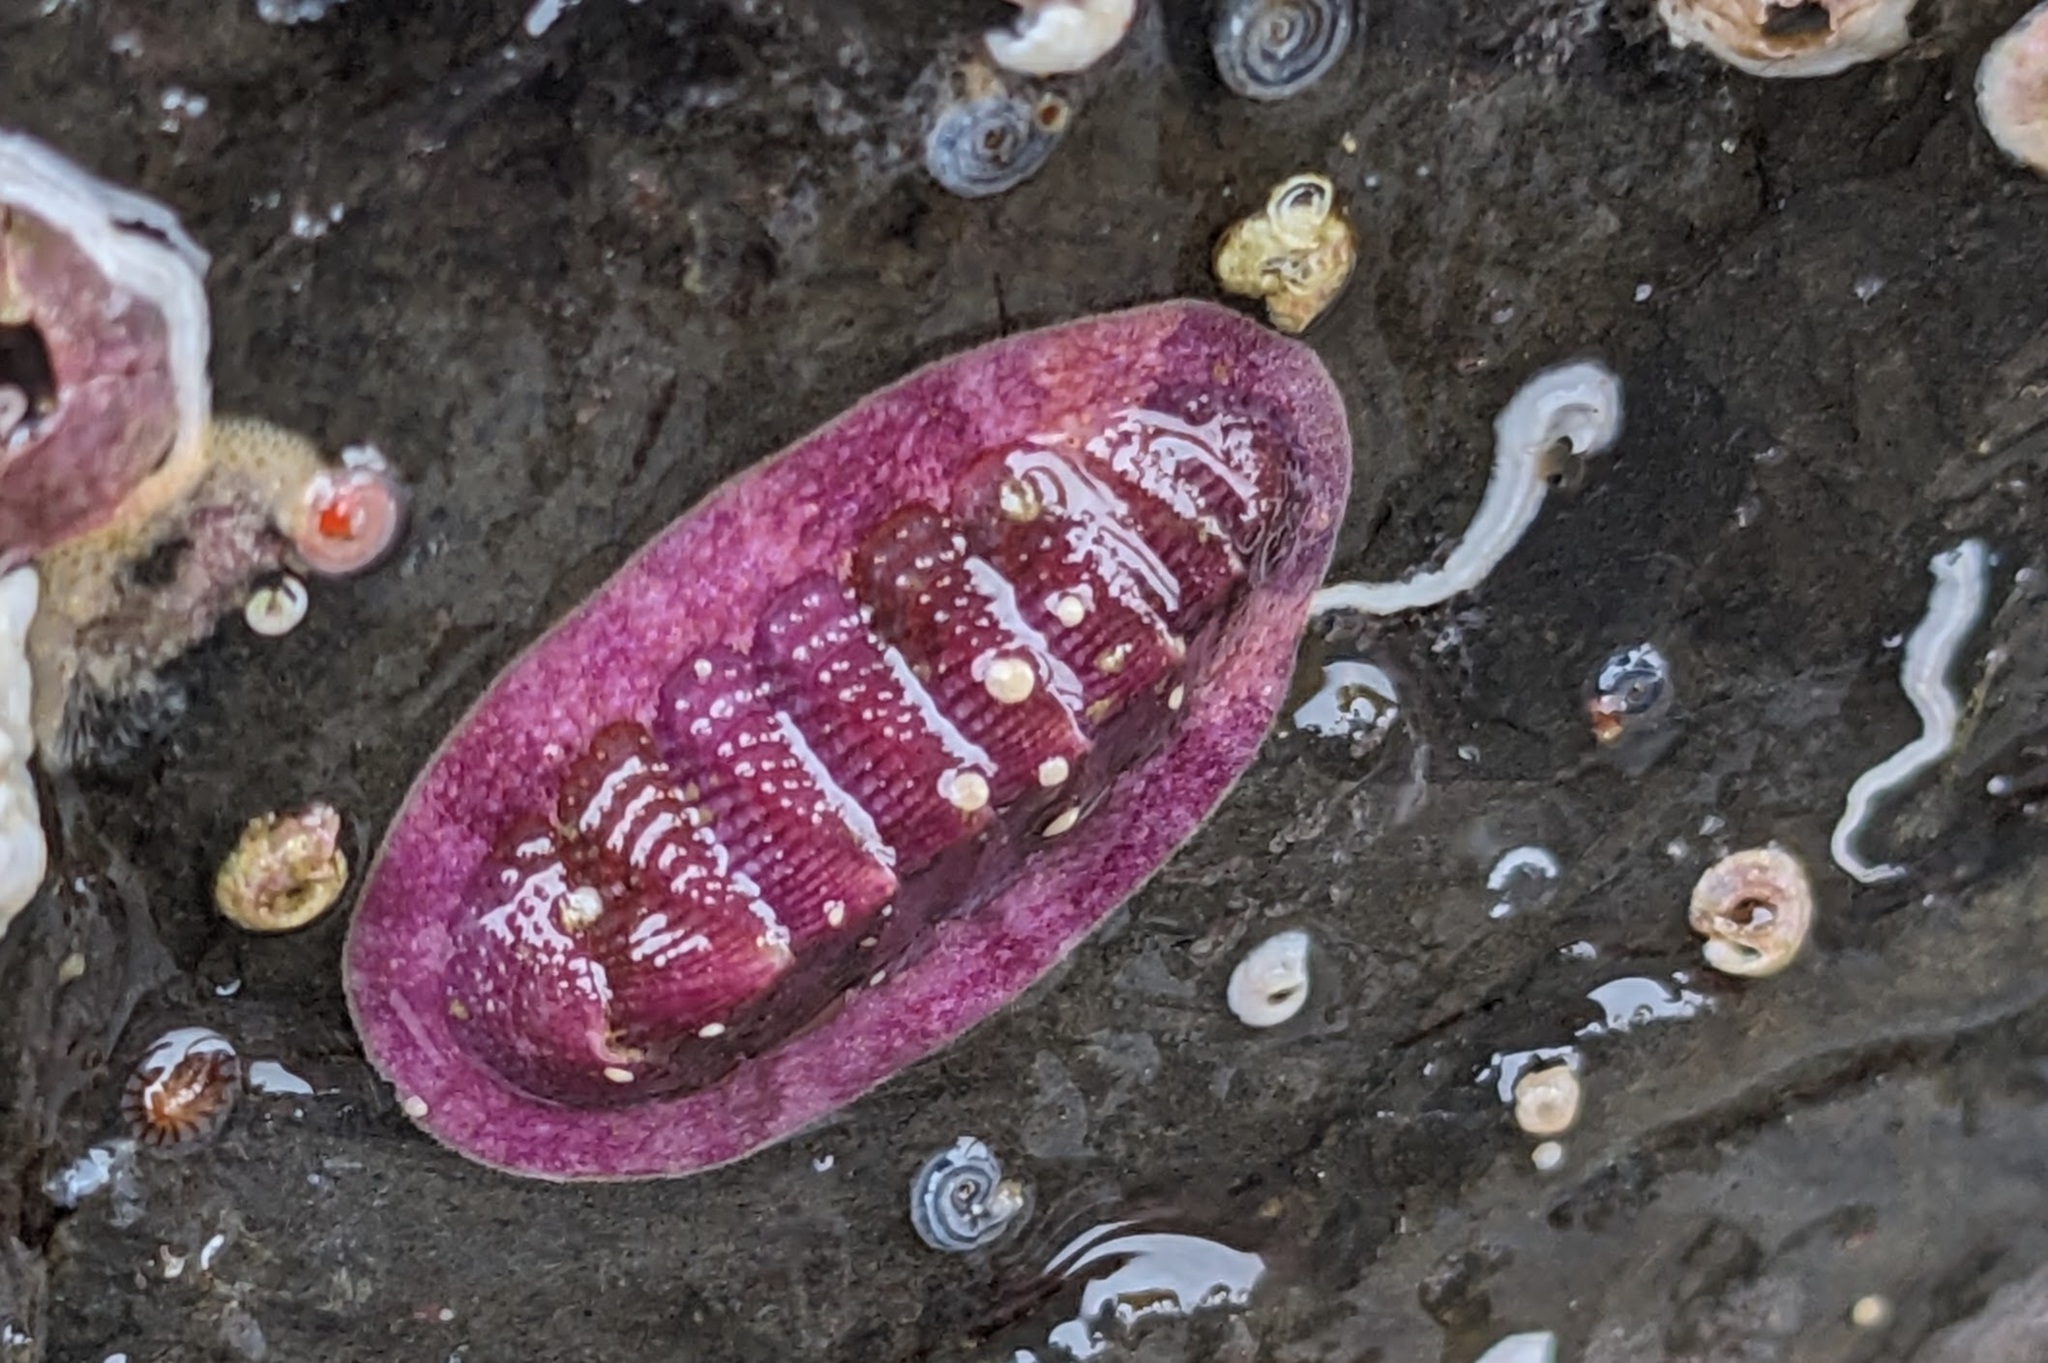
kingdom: Animalia
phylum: Mollusca
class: Polyplacophora
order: Chitonida
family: Ischnochitonidae
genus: Lepidozona
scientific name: Lepidozona mertensii
